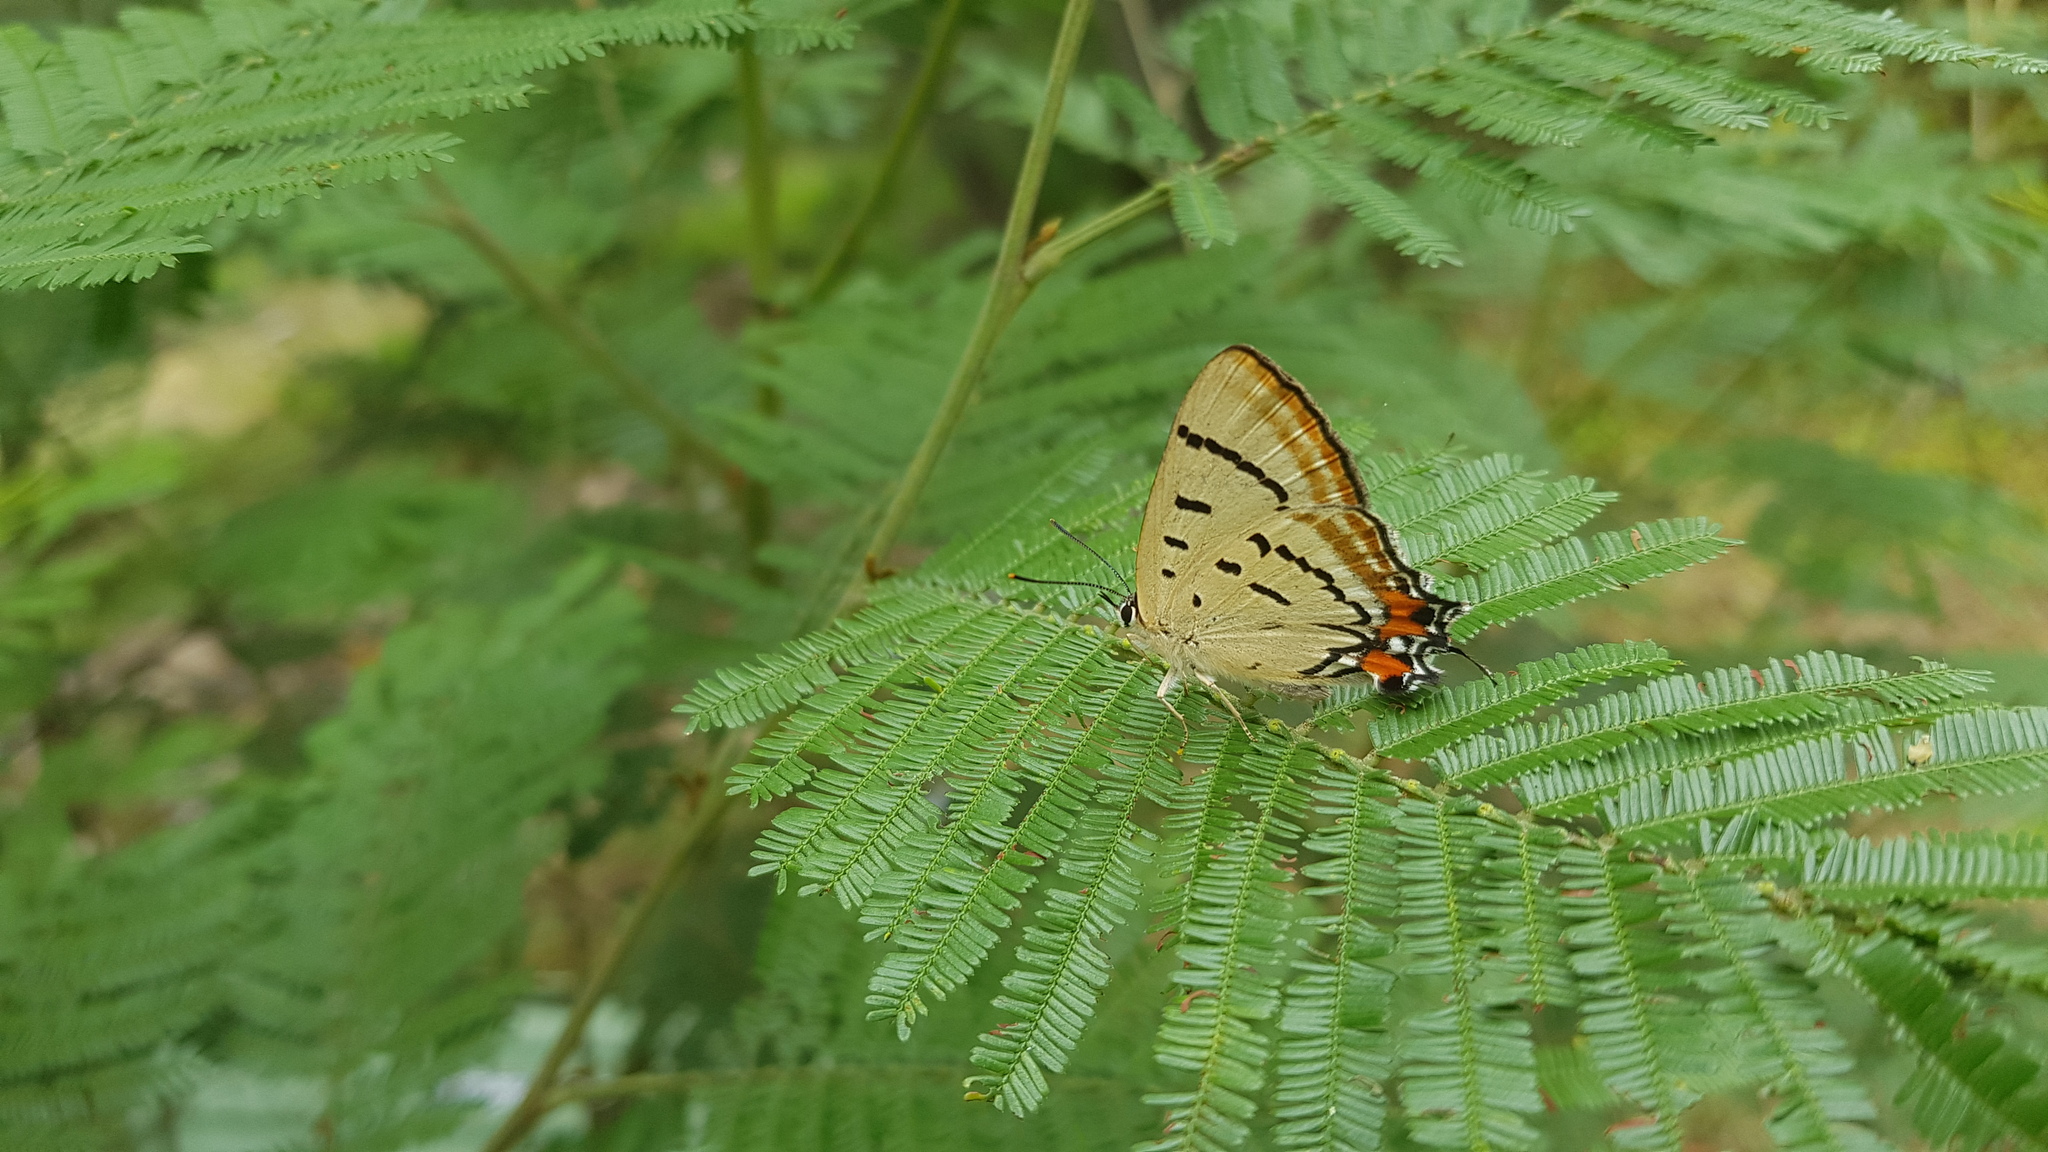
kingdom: Animalia
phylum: Arthropoda
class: Insecta
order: Lepidoptera
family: Lycaenidae
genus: Jalmenus
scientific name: Jalmenus evagoras
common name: Common imperial blue
